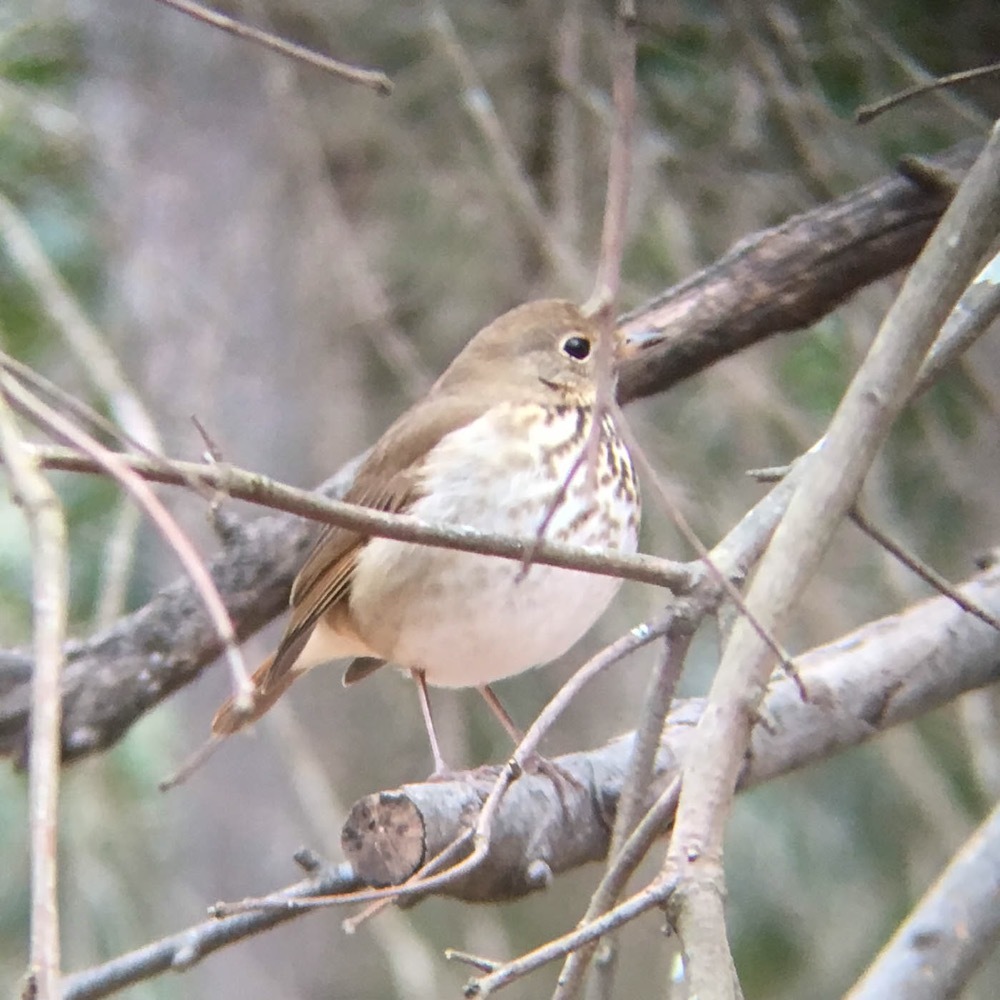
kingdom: Animalia
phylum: Chordata
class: Aves
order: Passeriformes
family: Turdidae
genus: Catharus
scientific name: Catharus guttatus
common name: Hermit thrush
